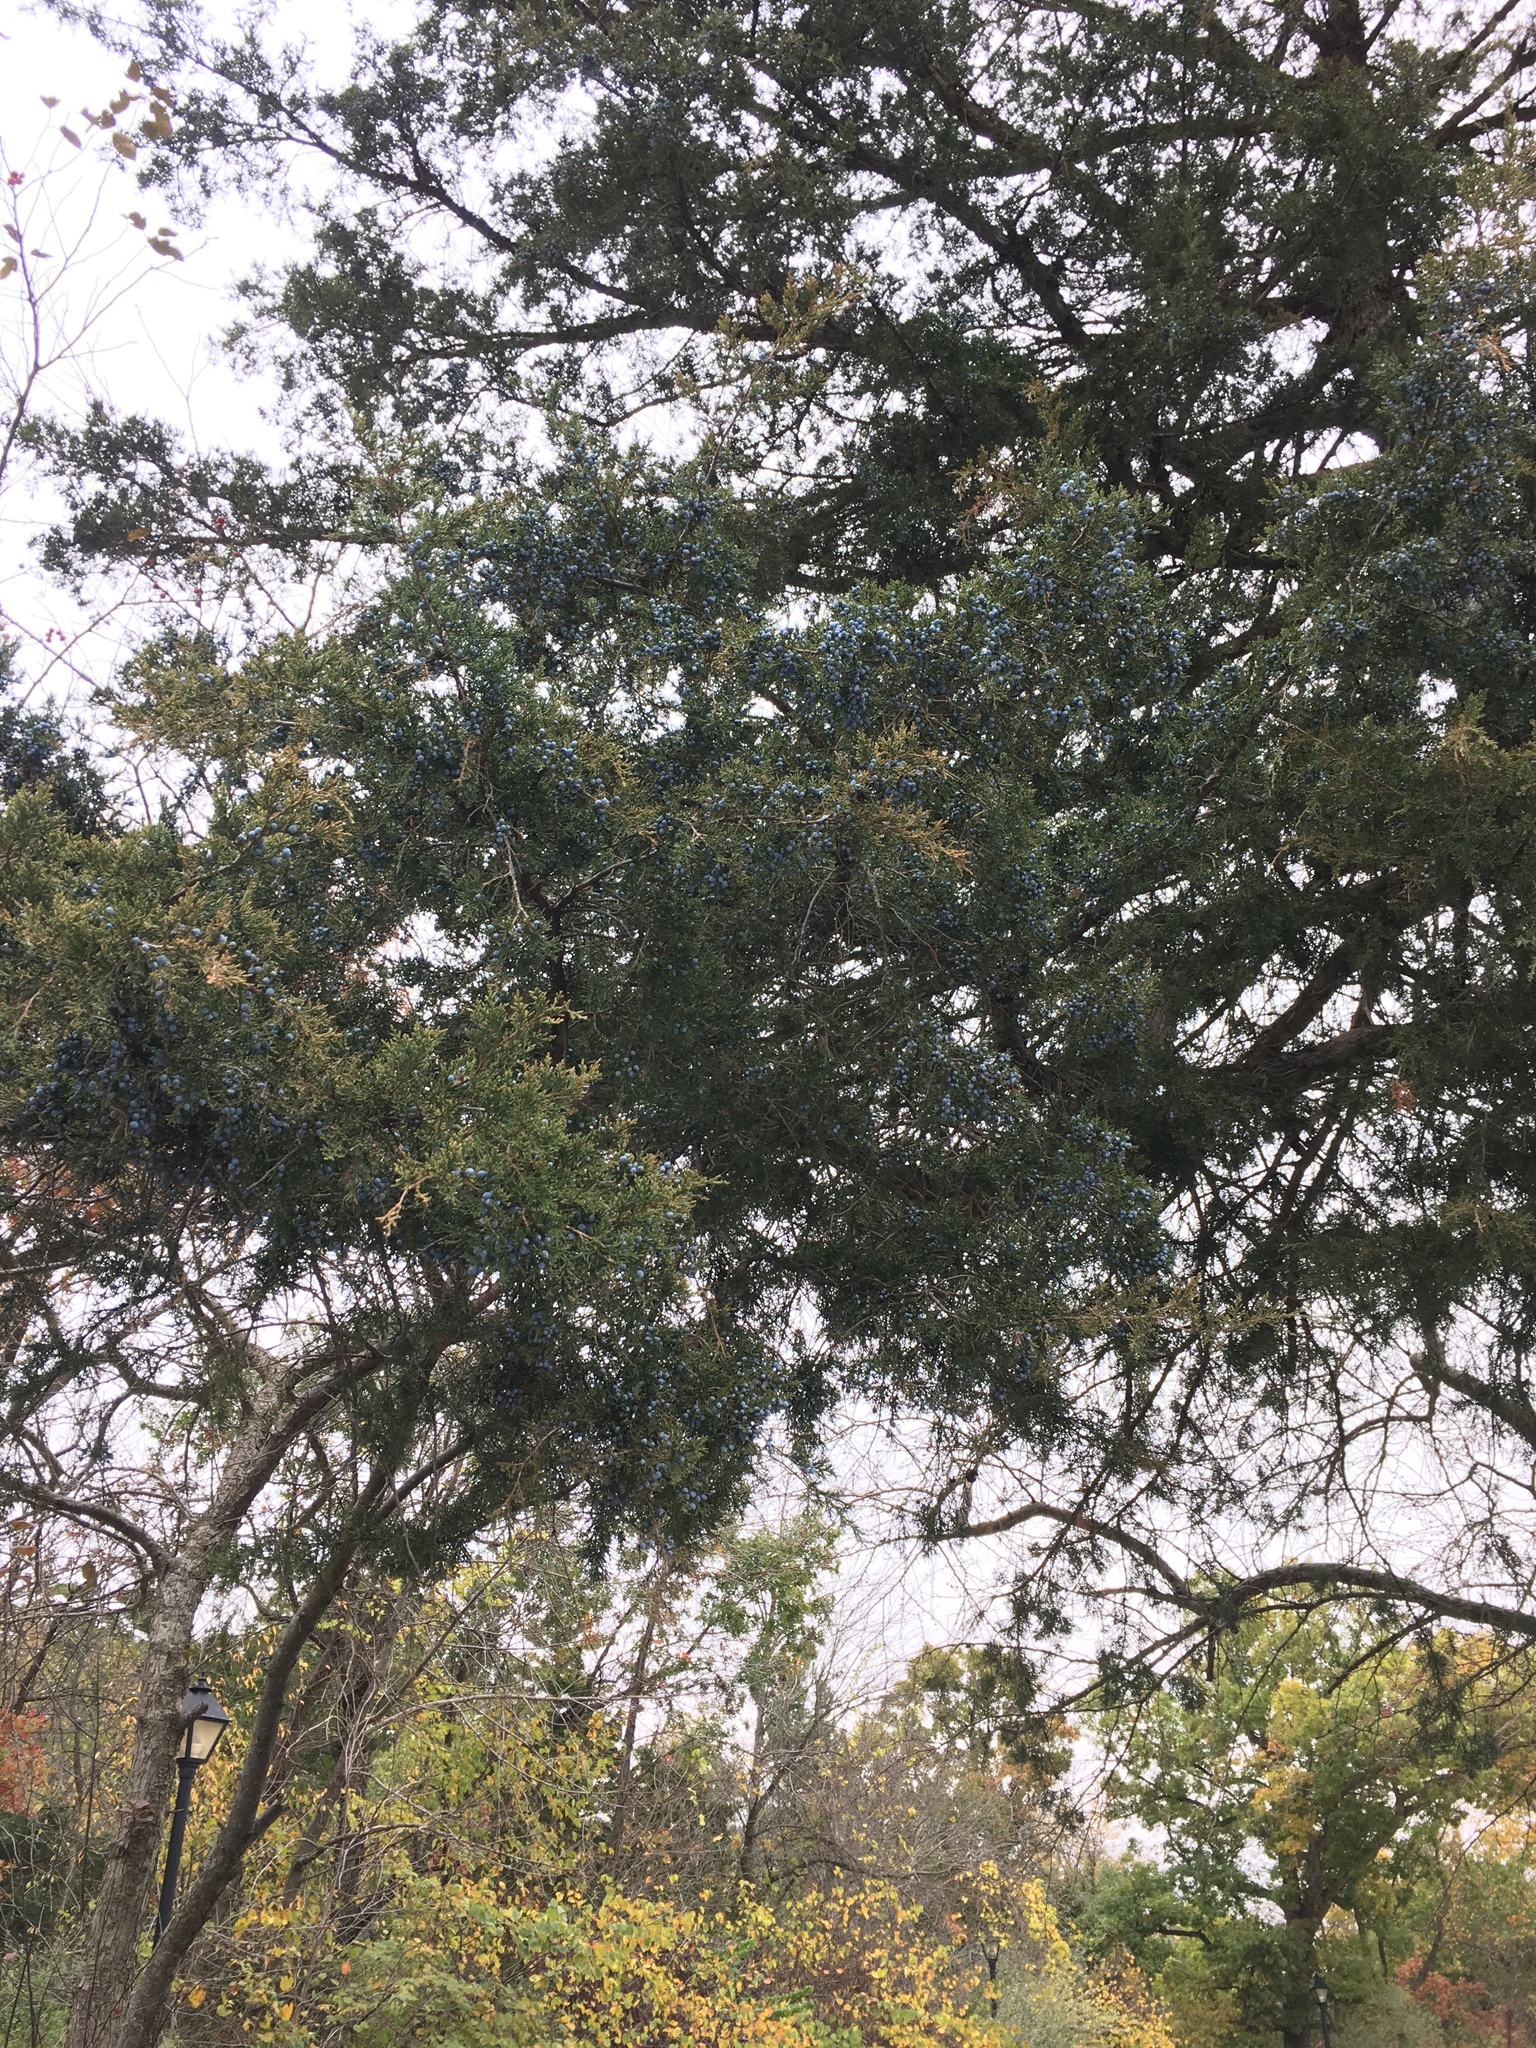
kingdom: Plantae
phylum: Tracheophyta
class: Pinopsida
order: Pinales
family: Cupressaceae
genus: Juniperus
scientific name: Juniperus virginiana
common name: Red juniper
